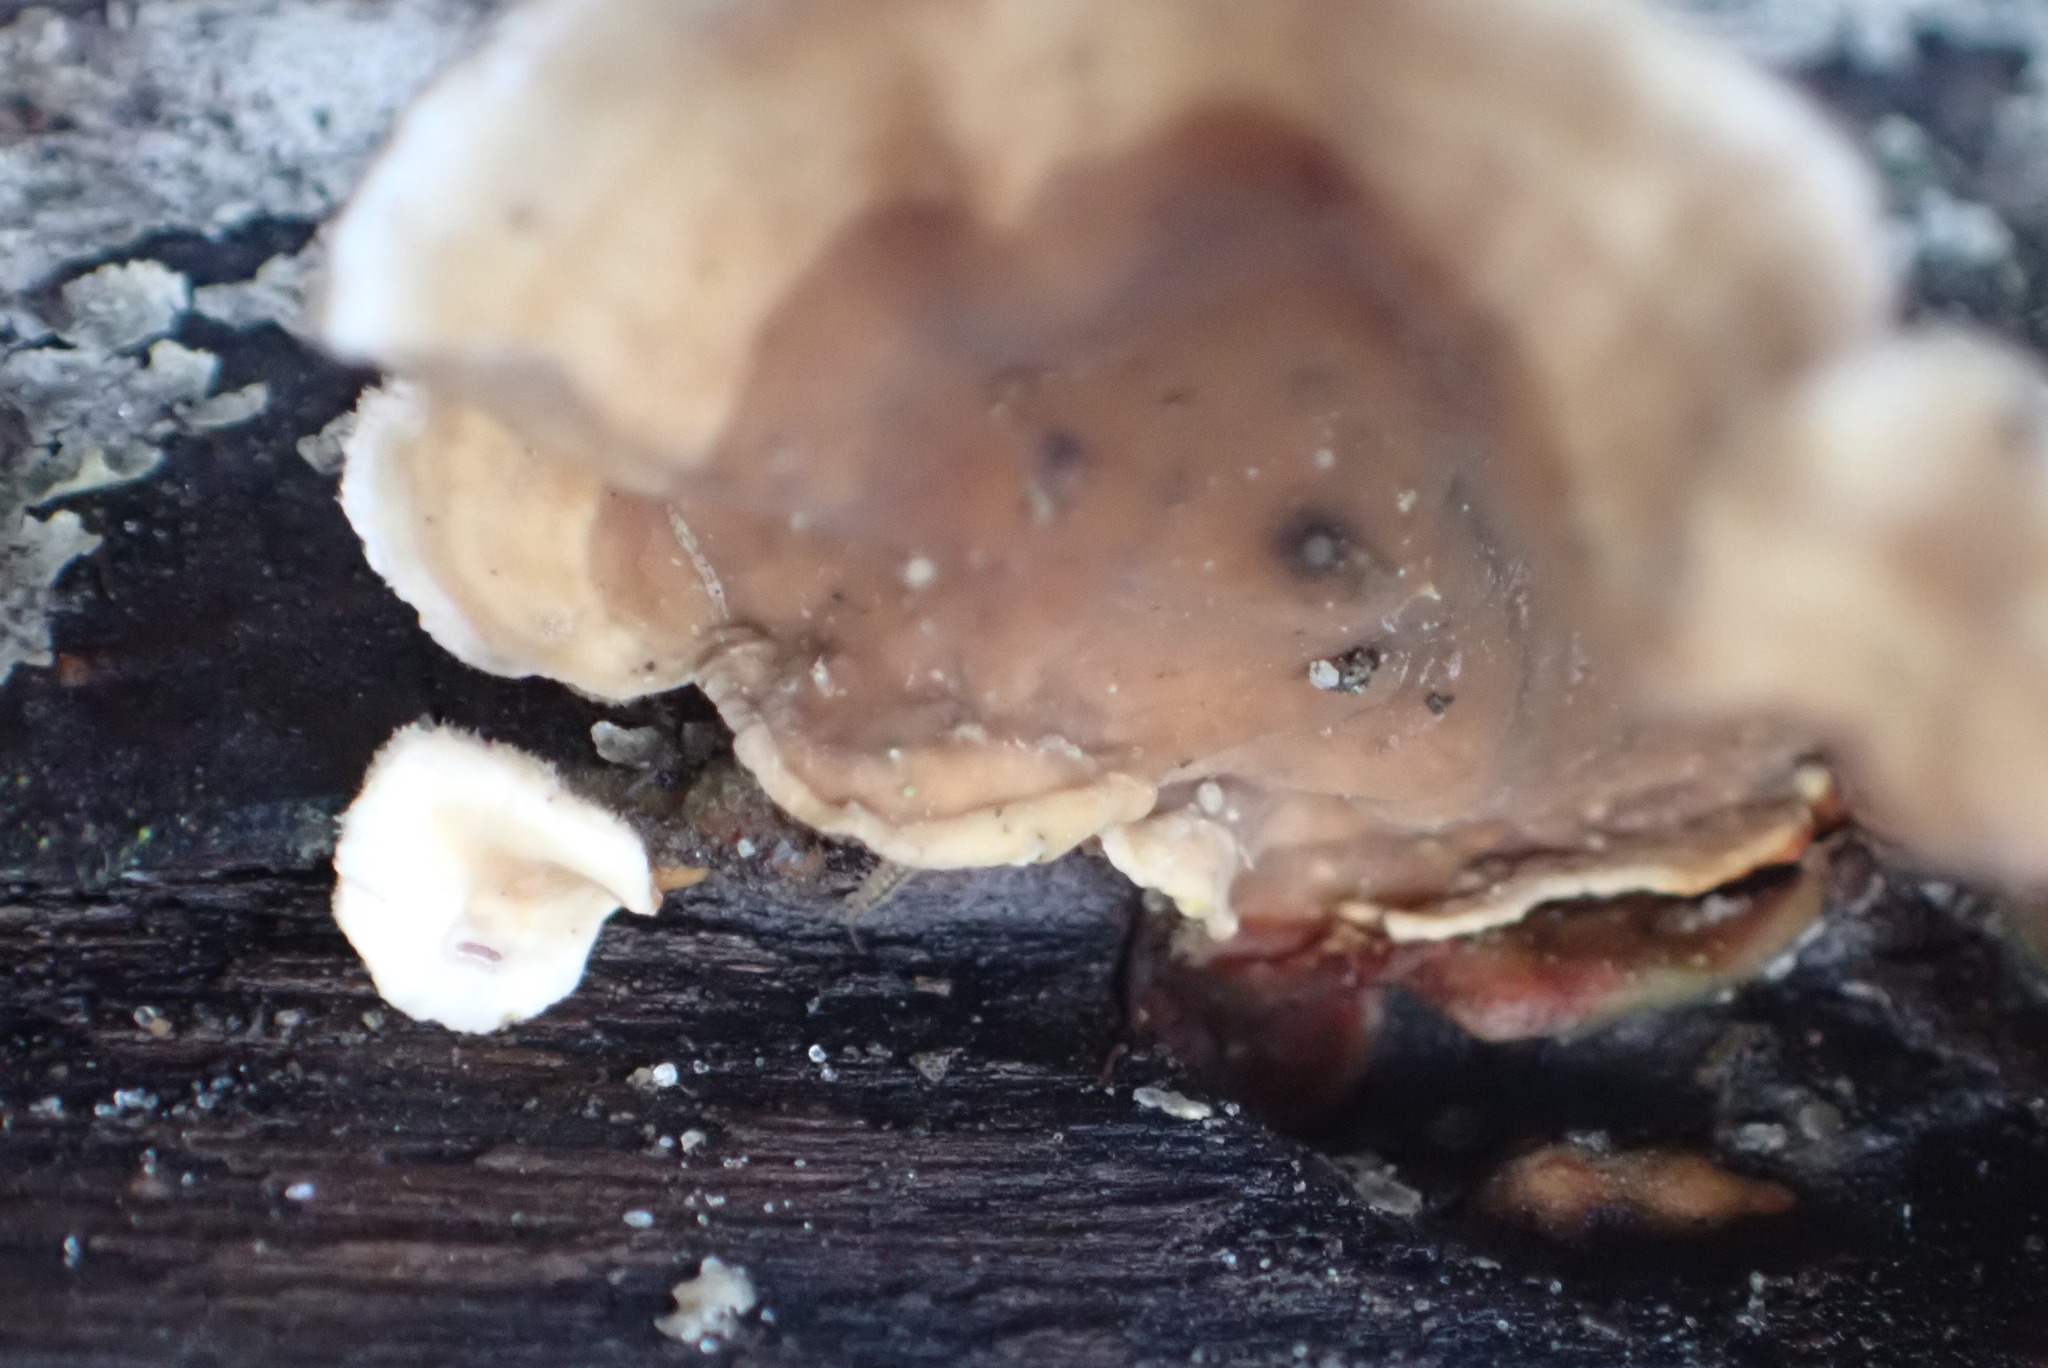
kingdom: Fungi
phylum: Basidiomycota
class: Agaricomycetes
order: Russulales
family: Stereaceae
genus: Stereum
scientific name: Stereum hirsutum
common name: Hairy curtain crust
